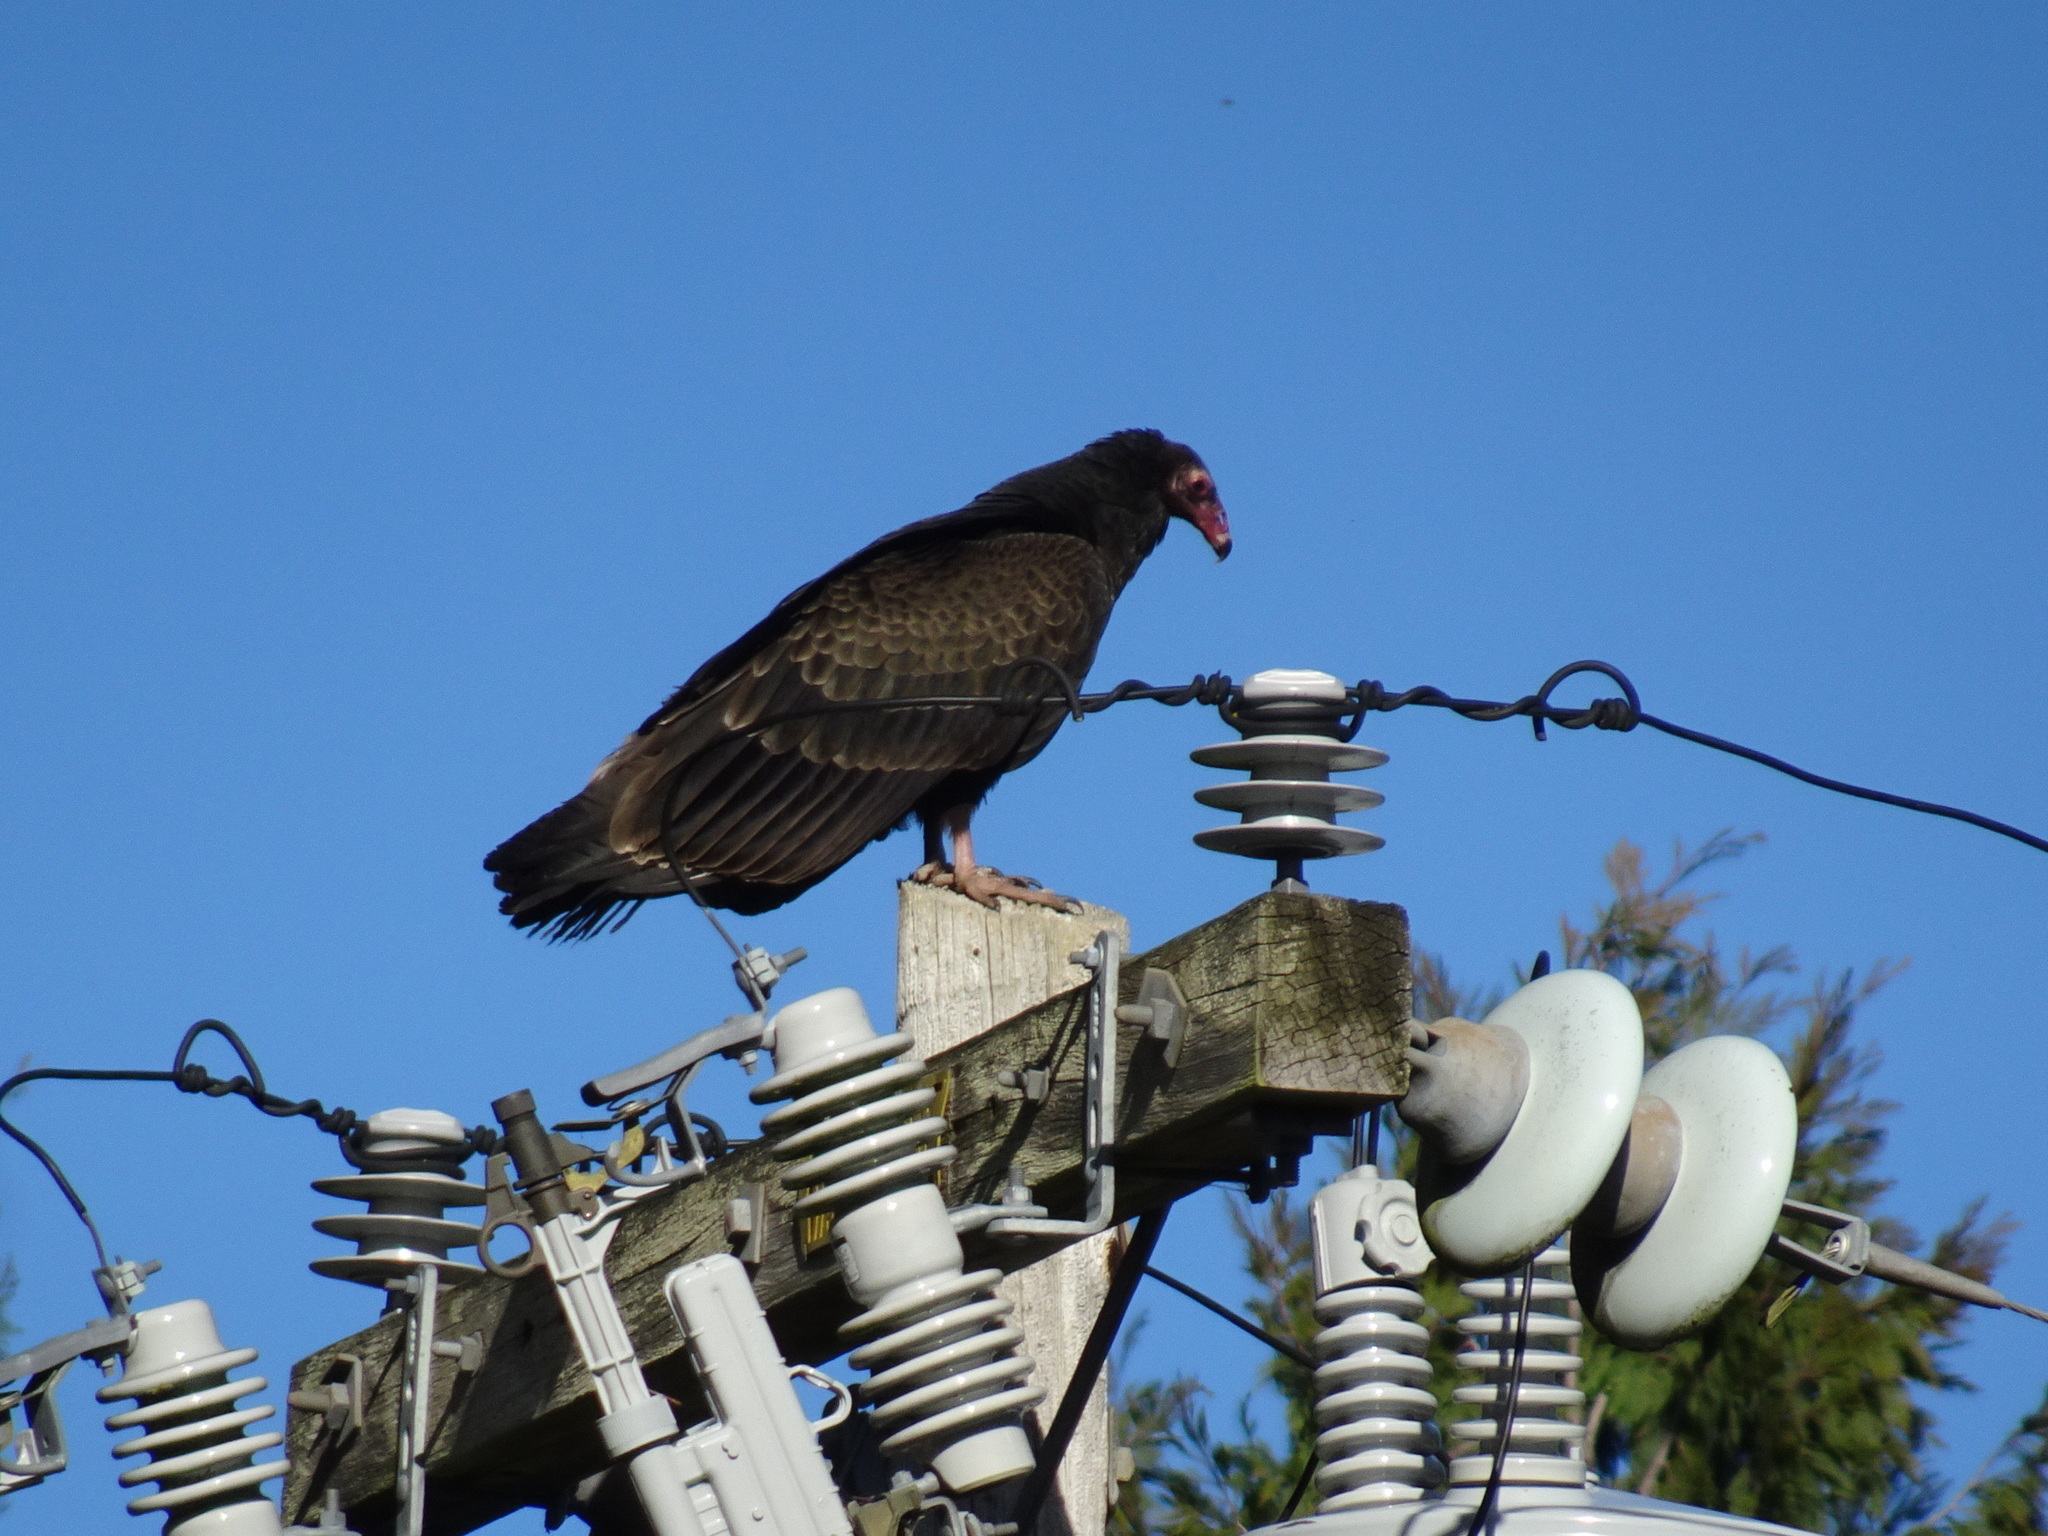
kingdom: Animalia
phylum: Chordata
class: Aves
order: Accipitriformes
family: Cathartidae
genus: Cathartes
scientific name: Cathartes aura
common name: Turkey vulture
